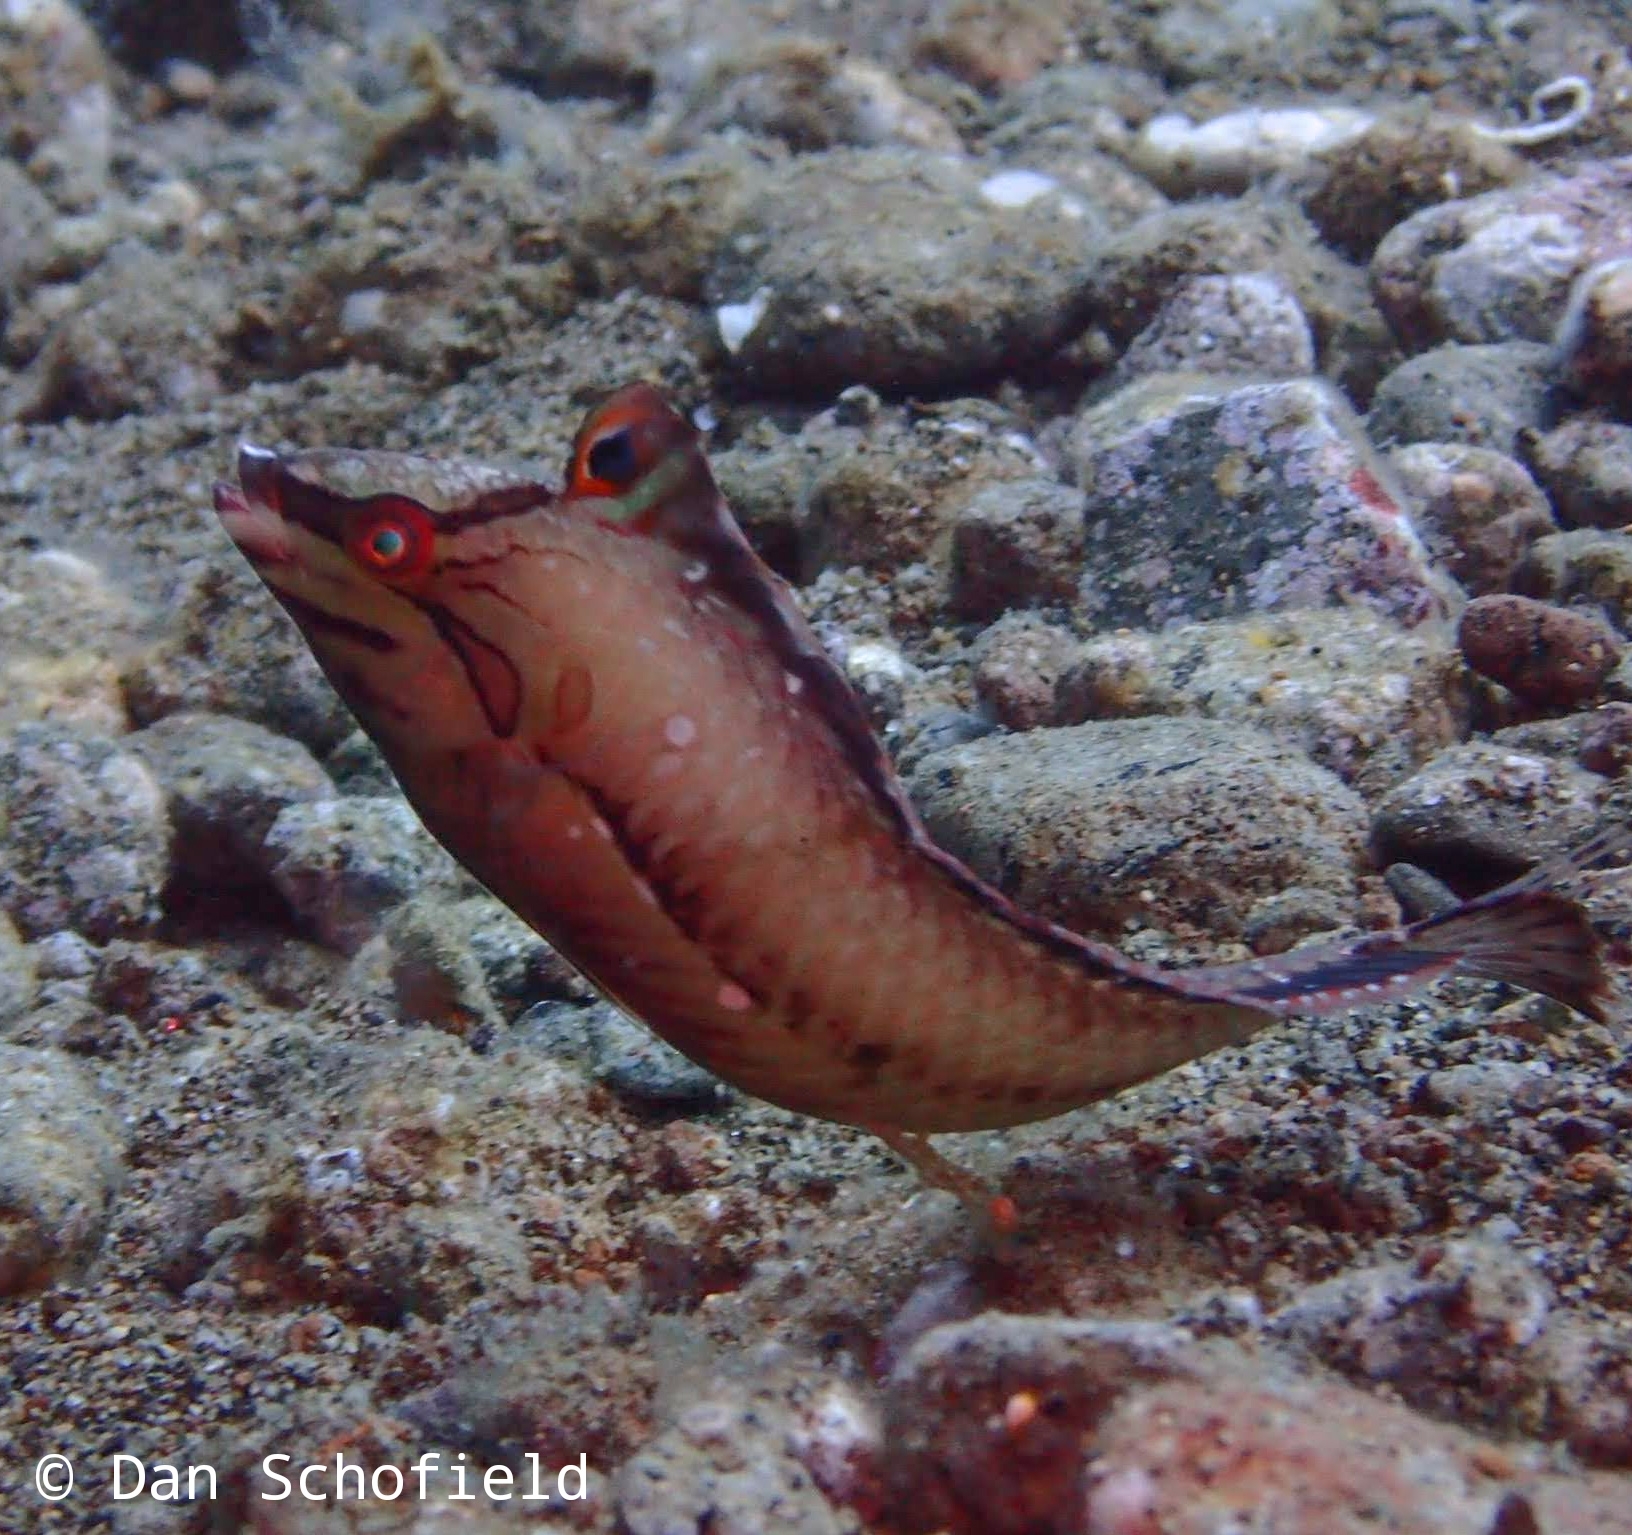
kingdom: Animalia
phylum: Chordata
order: Perciformes
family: Labridae
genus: Novaculoides
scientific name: Novaculoides macrolepidotus
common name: Seagrass wrasse
